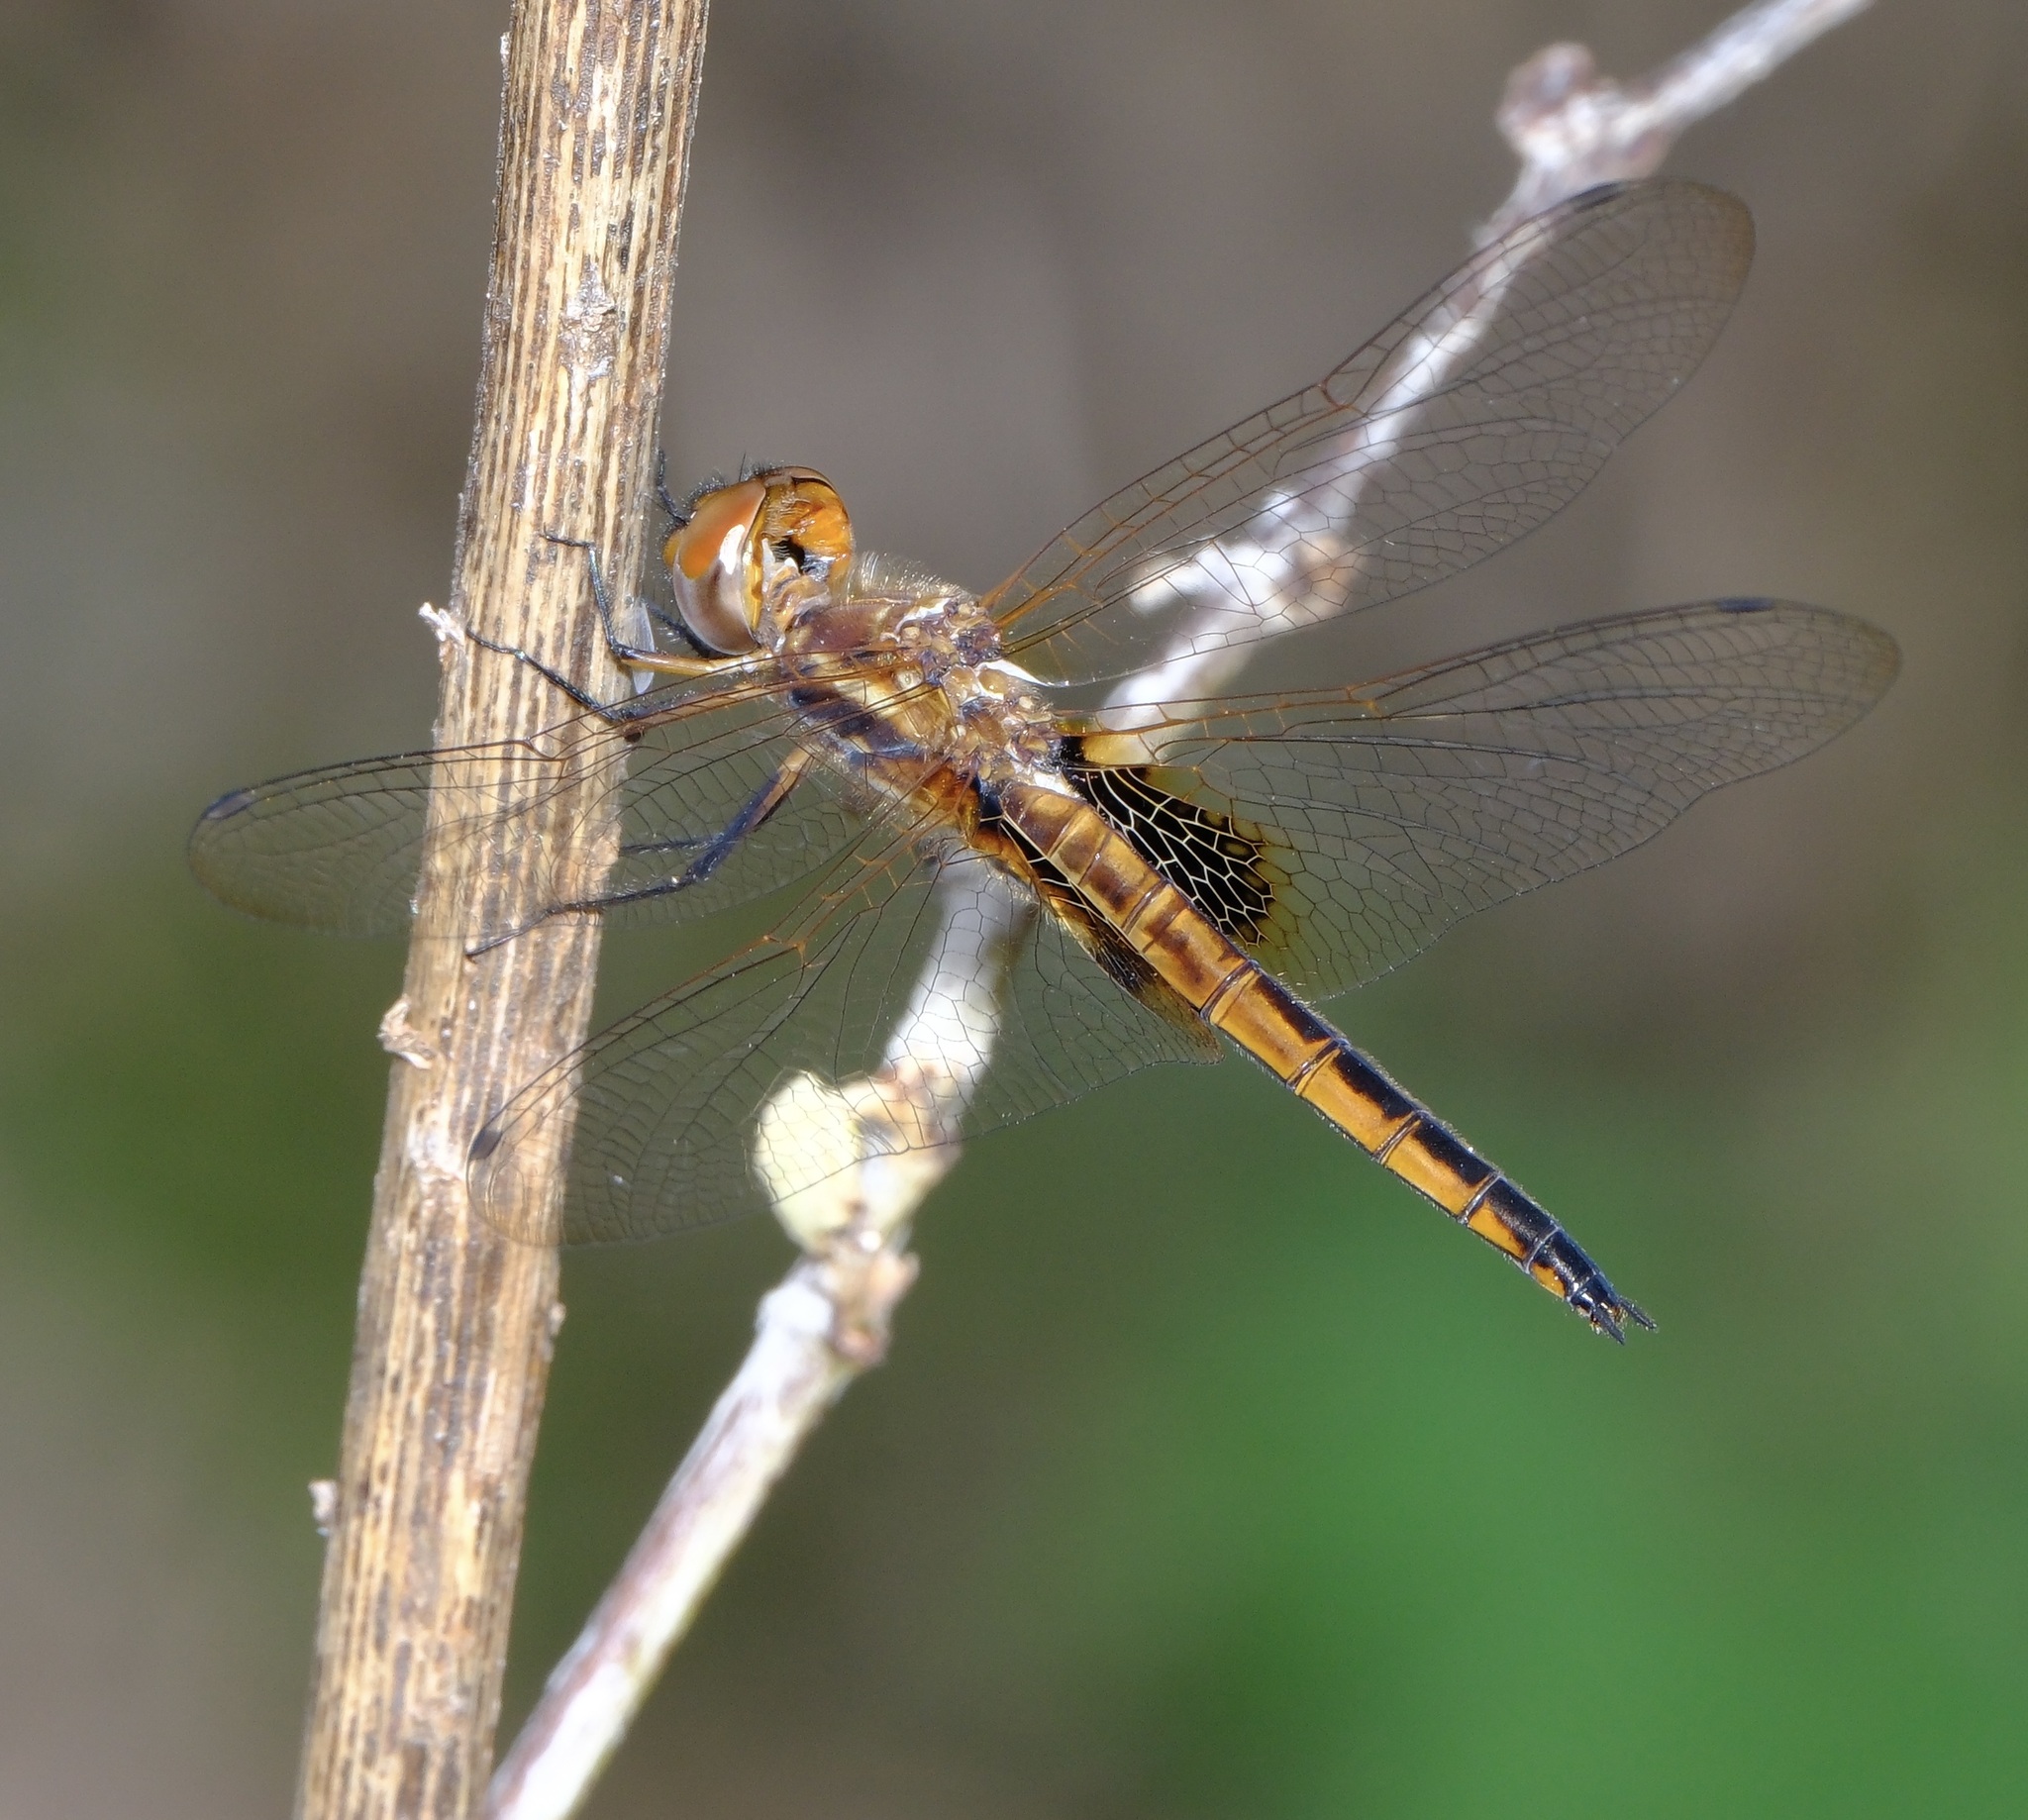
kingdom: Animalia
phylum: Arthropoda
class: Insecta
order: Odonata
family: Libellulidae
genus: Miathyria
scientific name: Miathyria marcella
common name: Hyacinth glider
